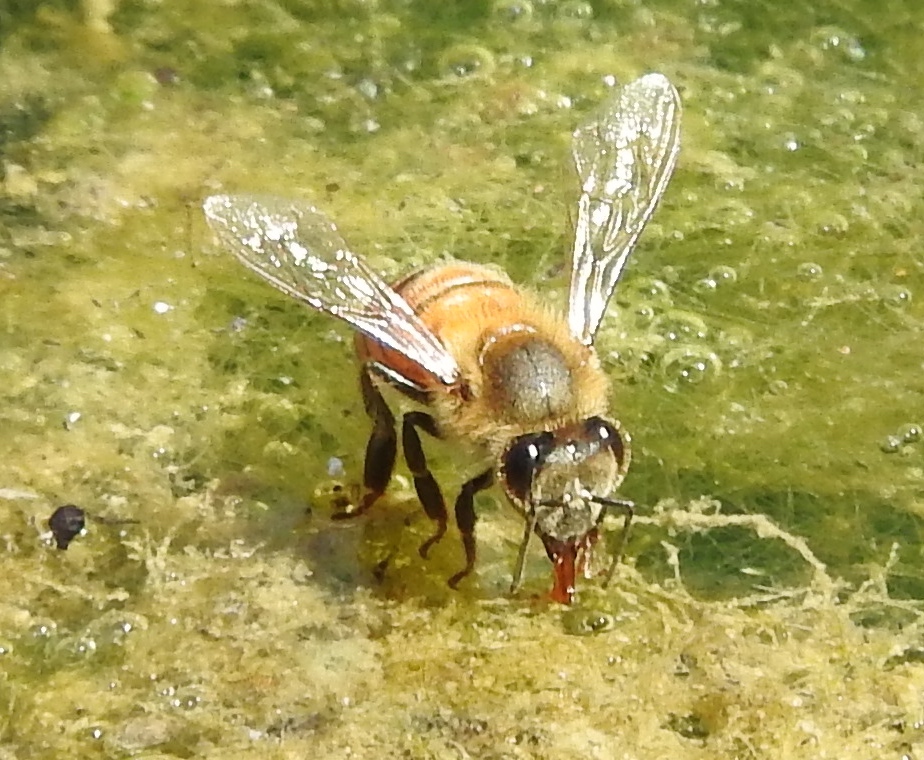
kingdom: Animalia
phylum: Arthropoda
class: Insecta
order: Hymenoptera
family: Apidae
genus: Apis
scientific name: Apis mellifera
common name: Honey bee
